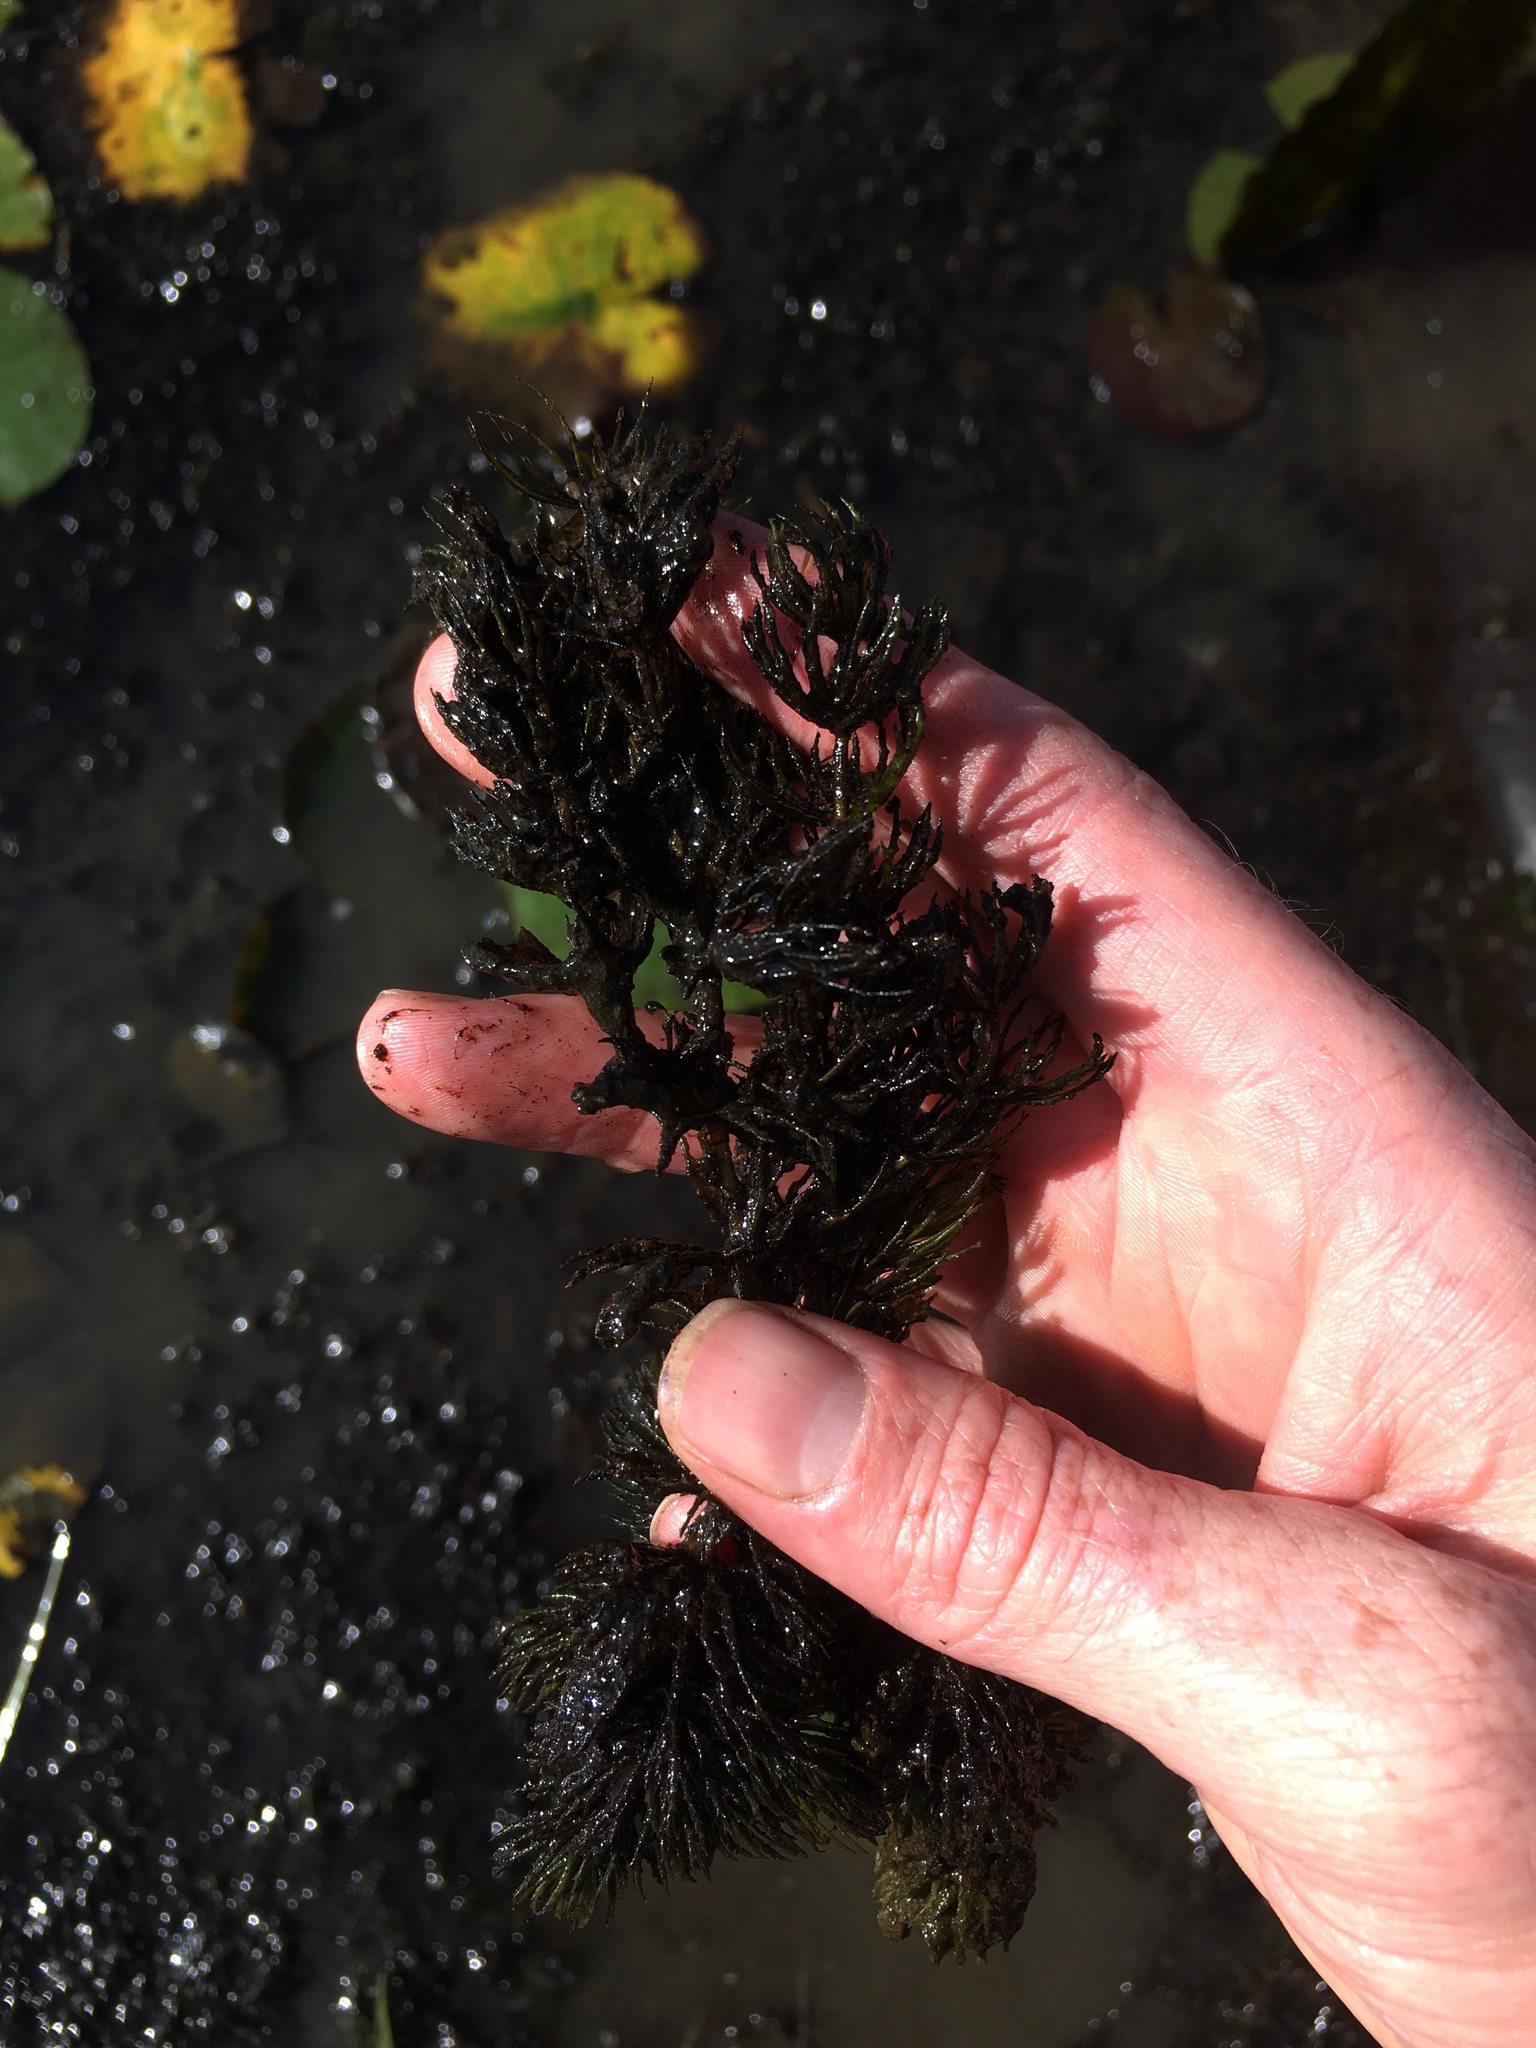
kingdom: Plantae
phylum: Tracheophyta
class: Magnoliopsida
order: Ceratophyllales
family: Ceratophyllaceae
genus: Ceratophyllum
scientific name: Ceratophyllum demersum
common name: Rigid hornwort
